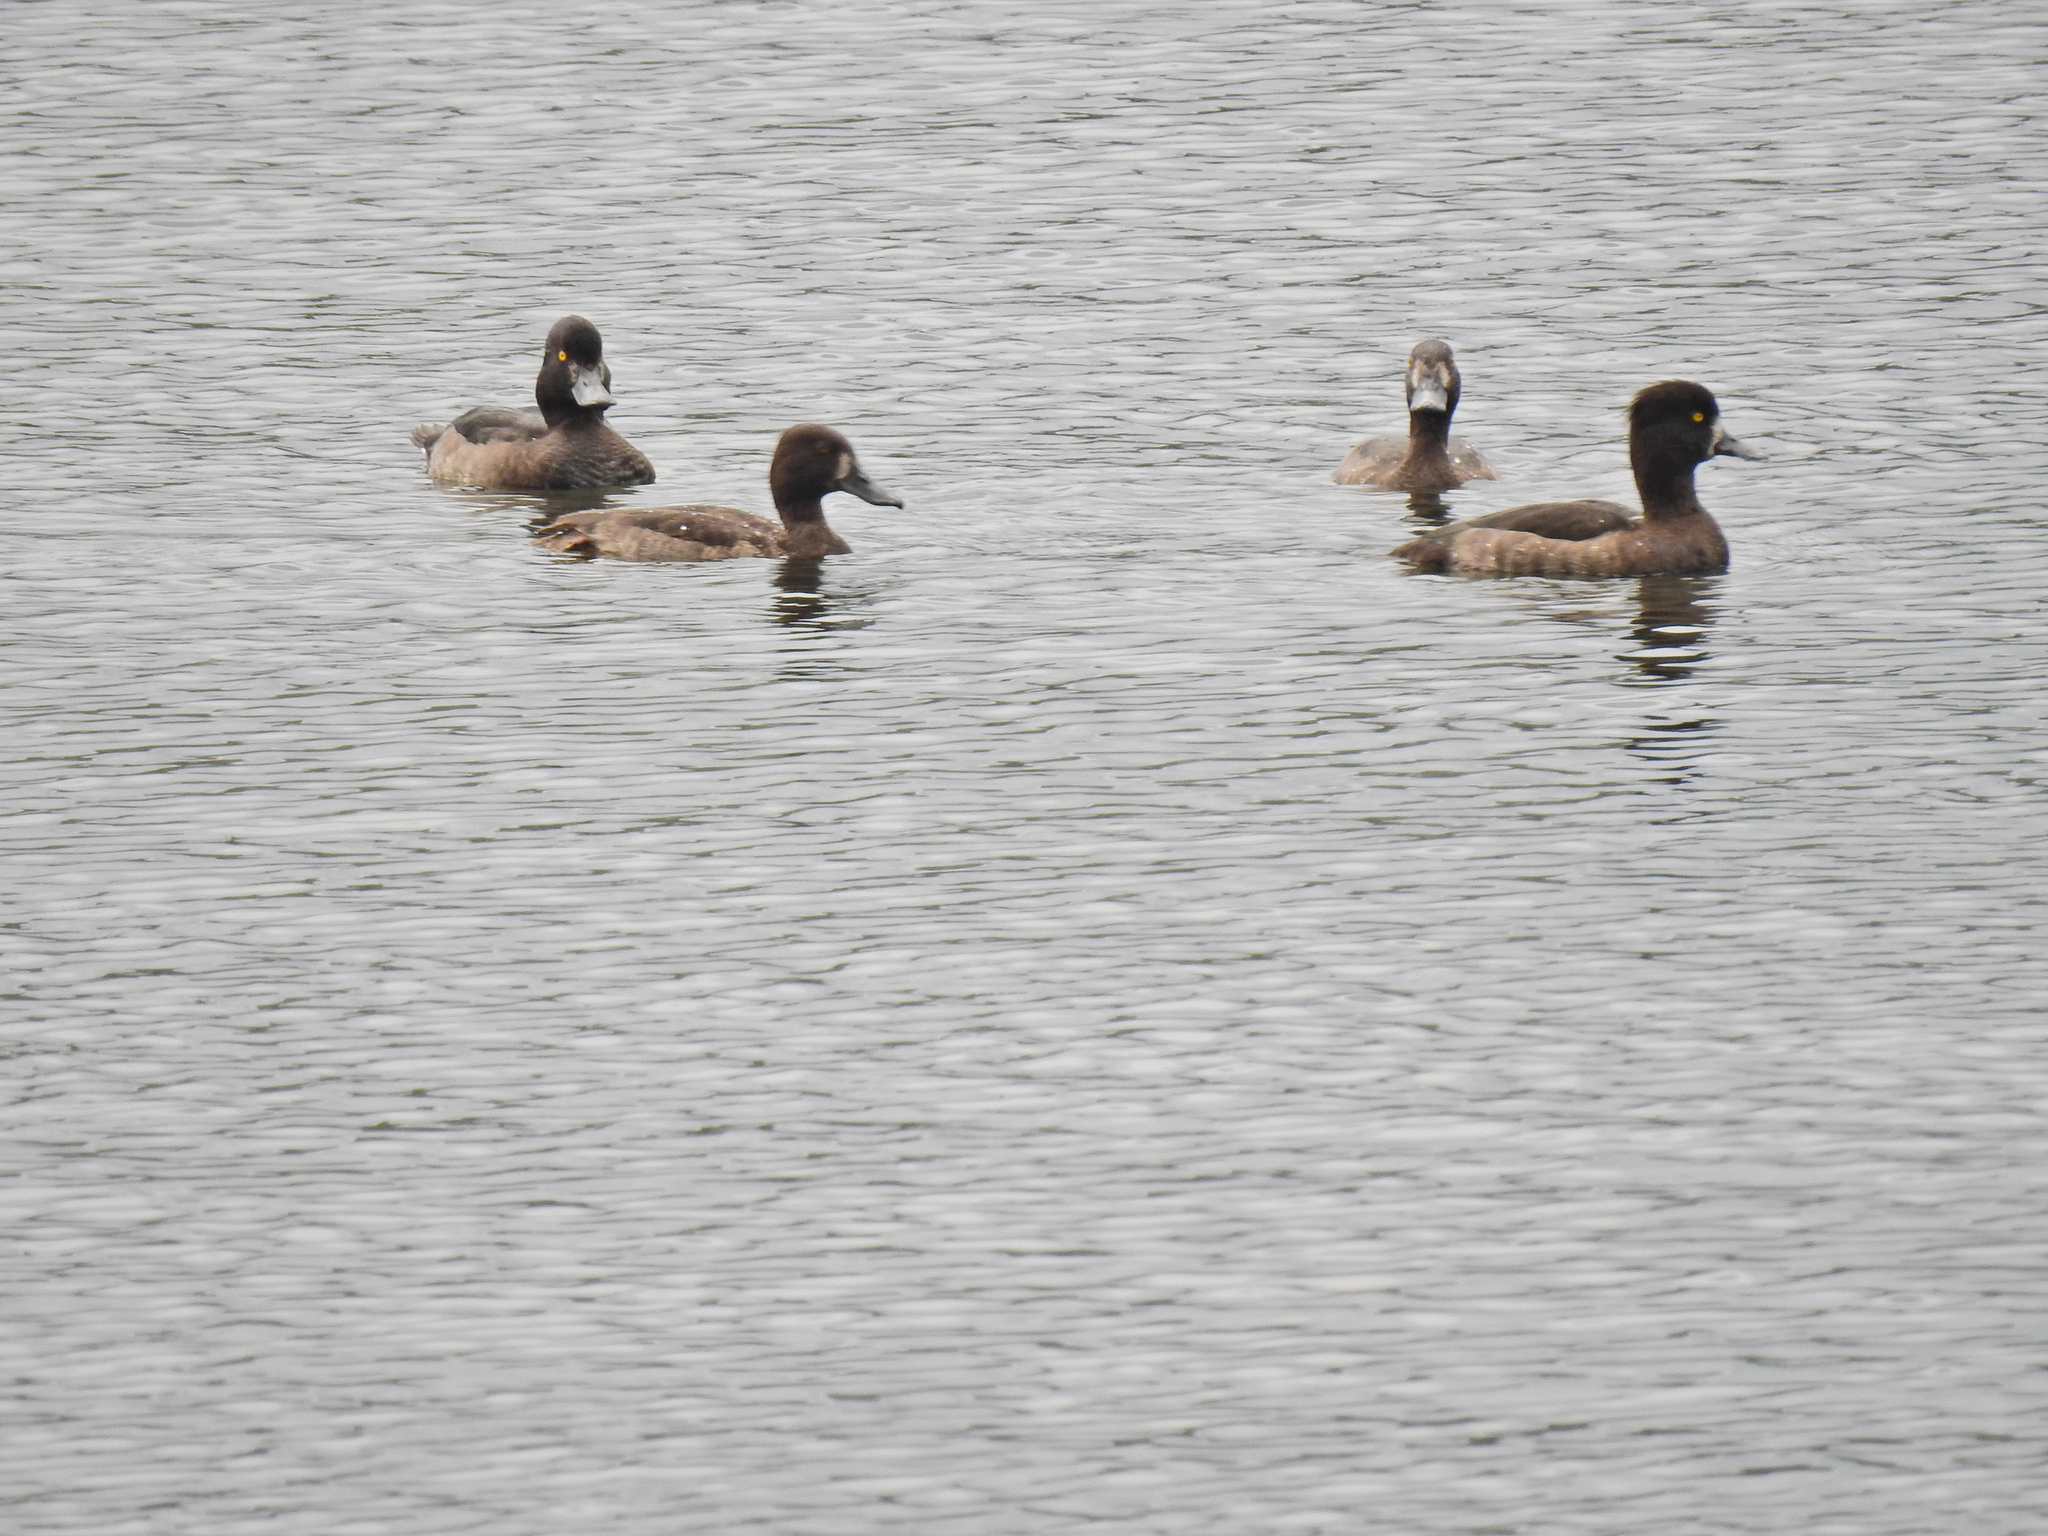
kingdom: Animalia
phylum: Chordata
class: Aves
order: Anseriformes
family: Anatidae
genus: Aythya
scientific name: Aythya fuligula
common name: Tufted duck
